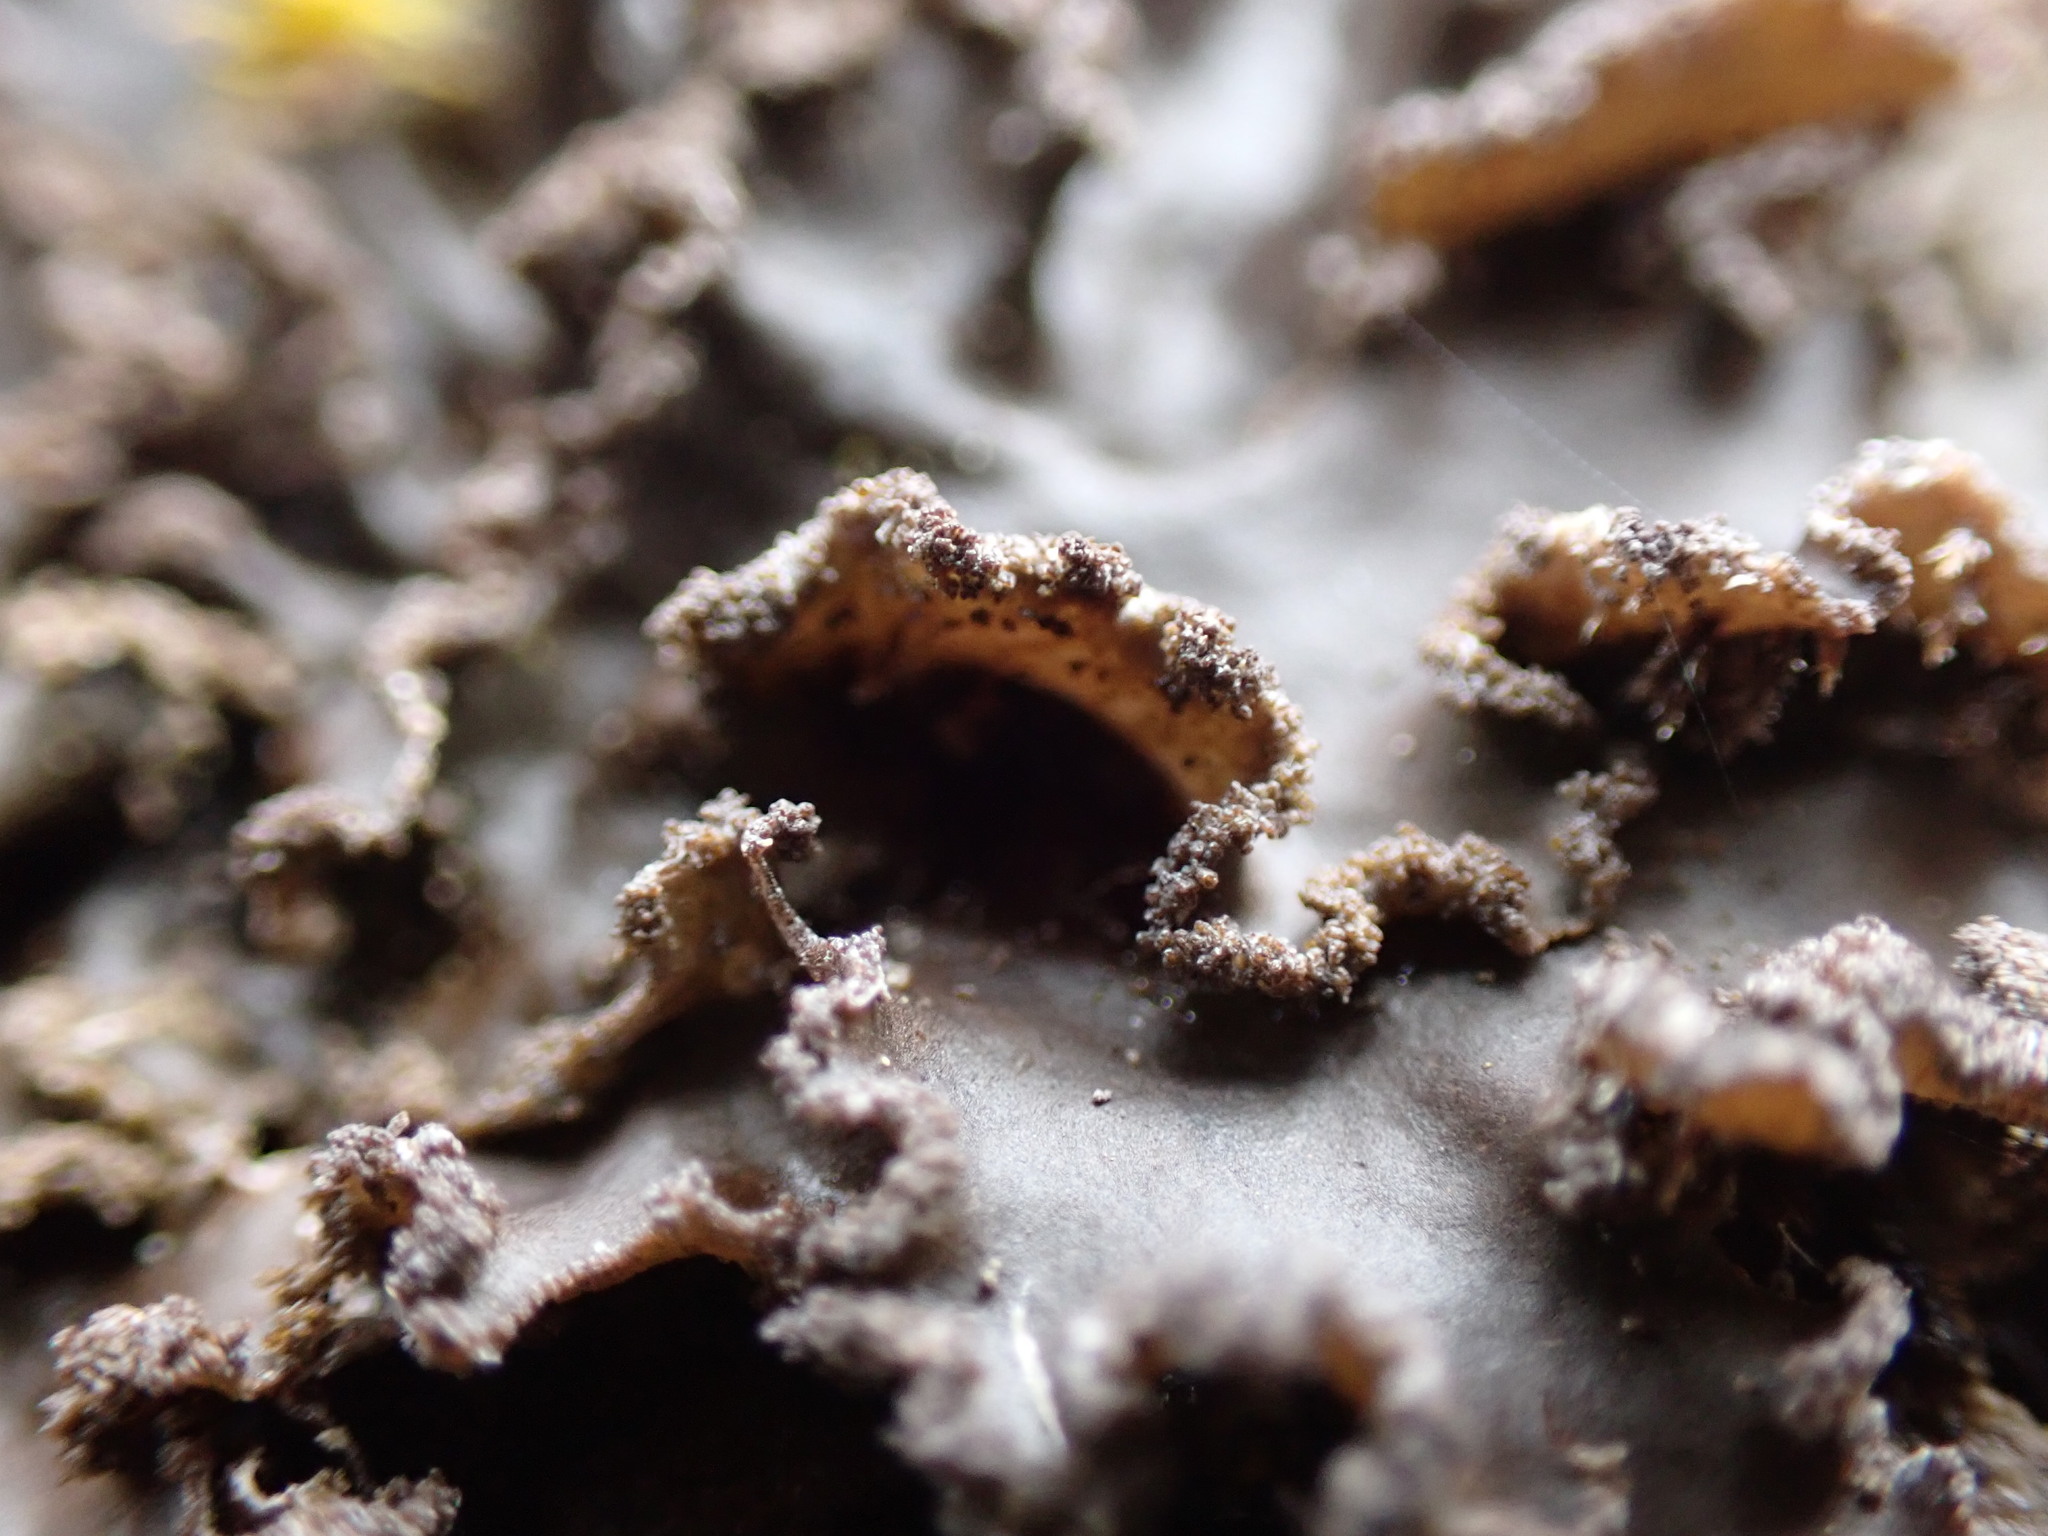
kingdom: Fungi
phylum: Ascomycota
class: Lecanoromycetes
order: Peltigerales
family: Peltigeraceae
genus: Peltigera
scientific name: Peltigera collina
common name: Gritty tree pelt lichen
